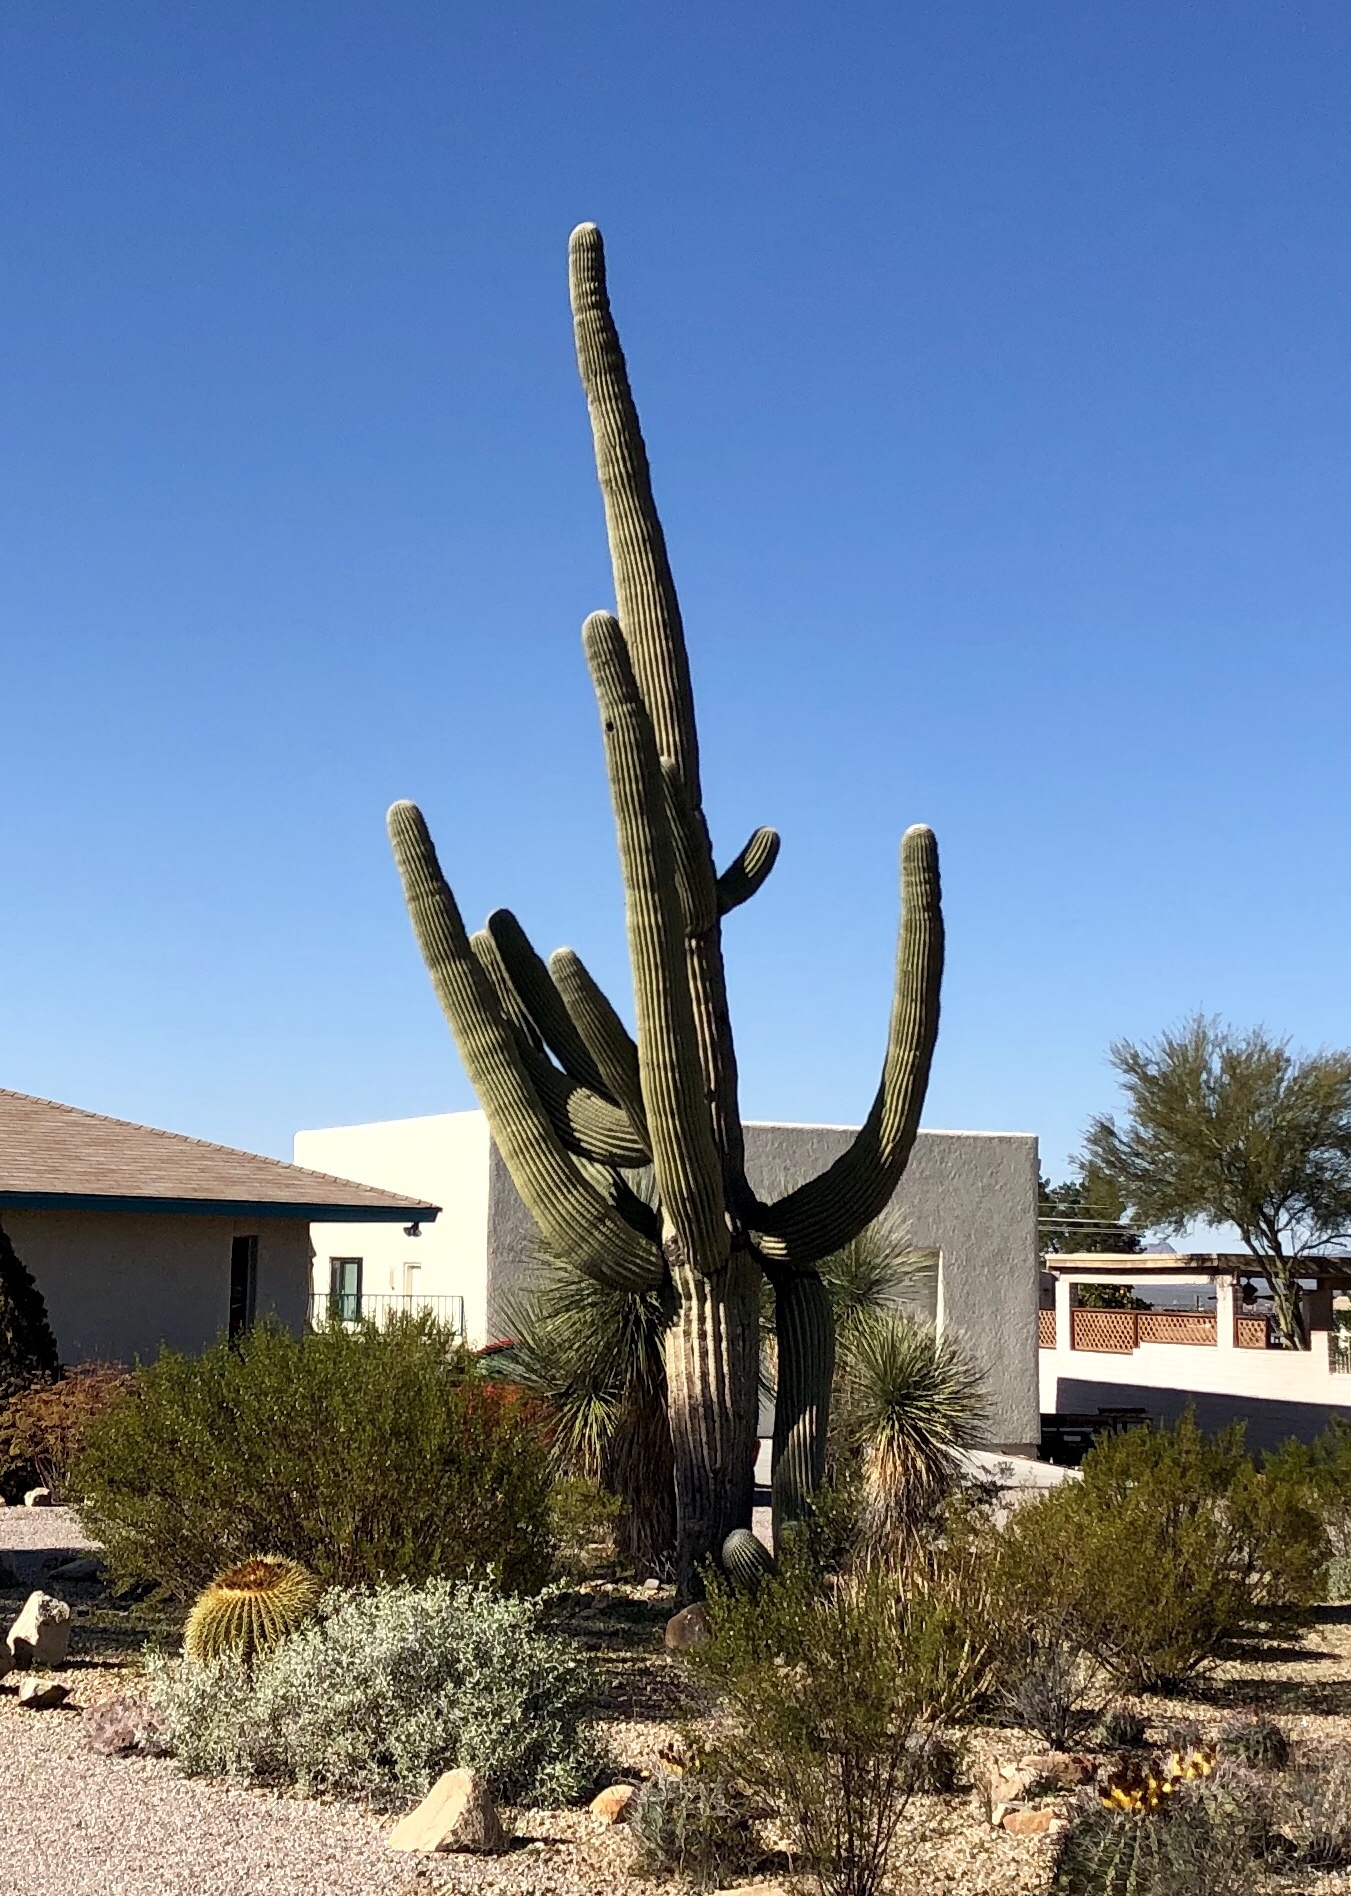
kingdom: Plantae
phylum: Tracheophyta
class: Magnoliopsida
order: Caryophyllales
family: Cactaceae
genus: Carnegiea
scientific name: Carnegiea gigantea
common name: Saguaro
